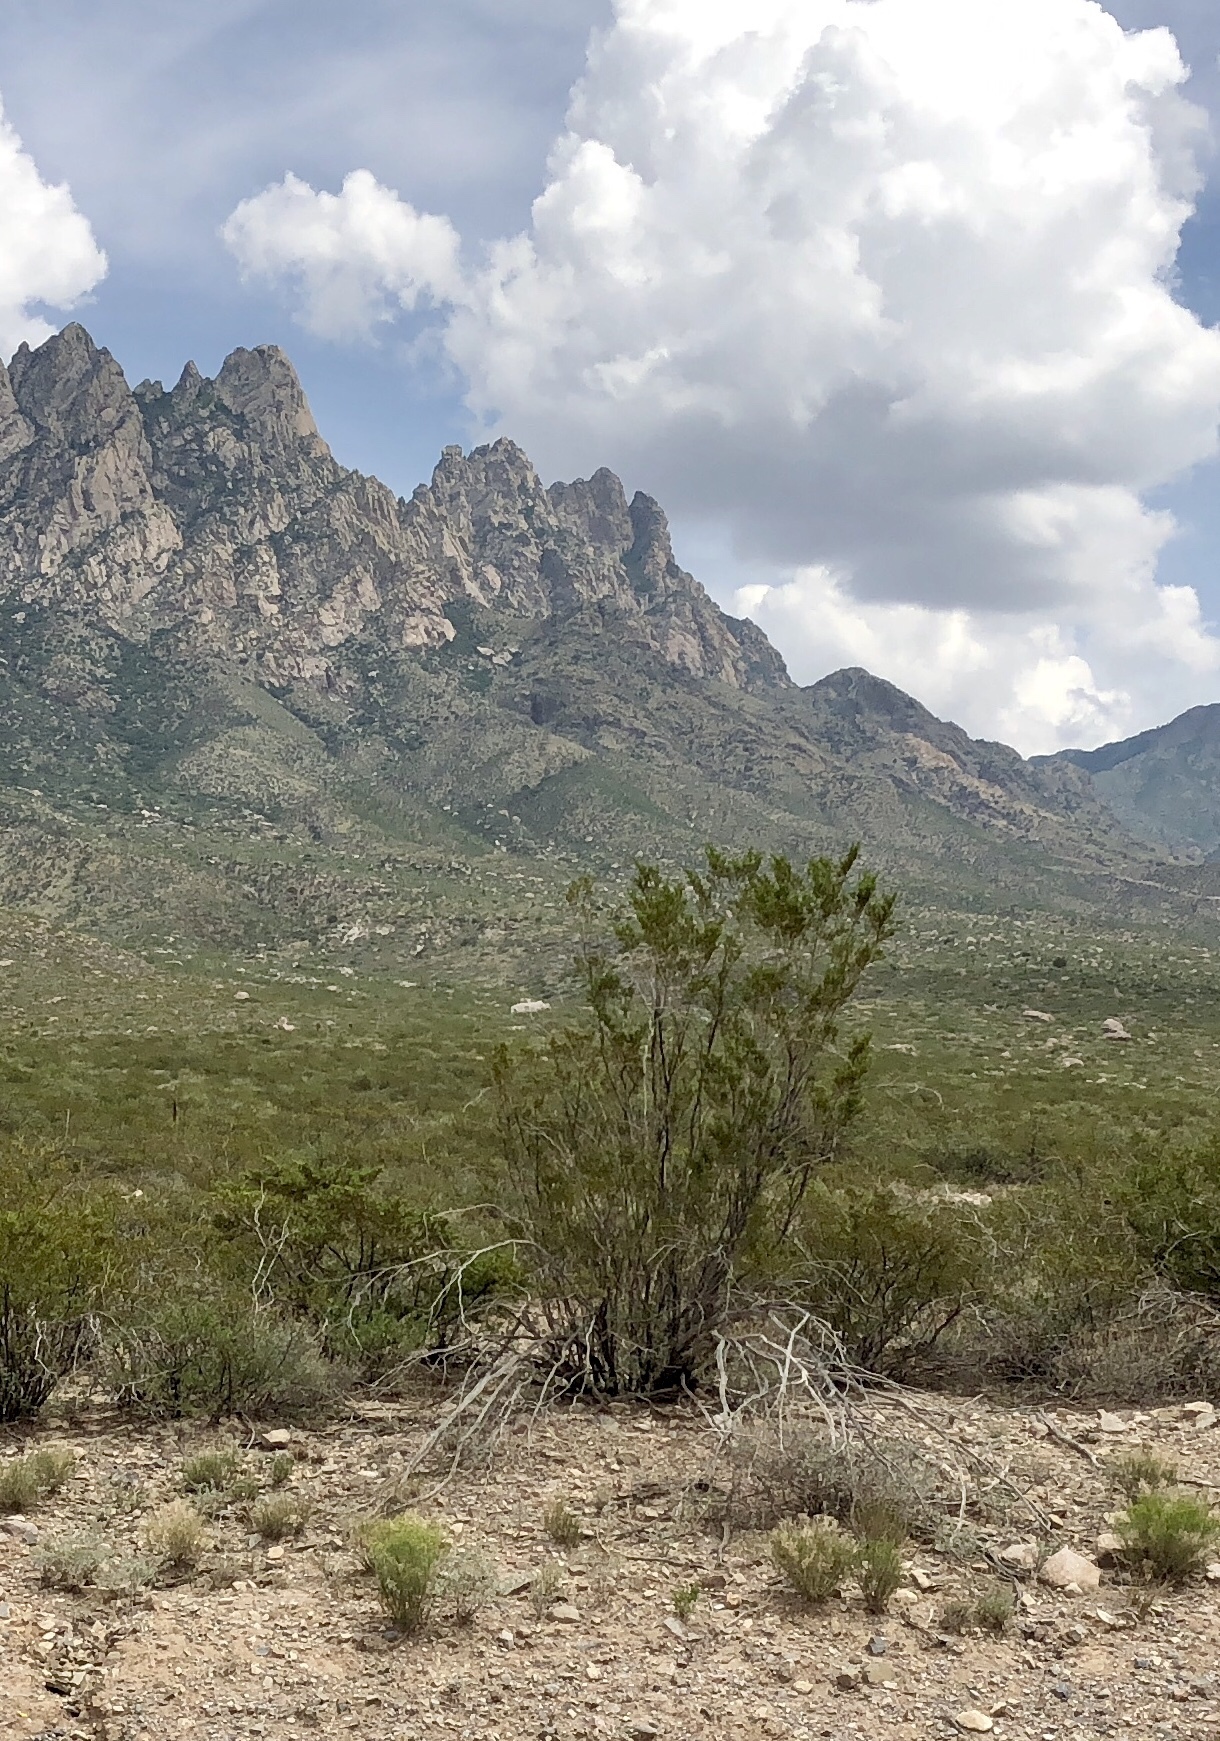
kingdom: Plantae
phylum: Tracheophyta
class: Magnoliopsida
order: Zygophyllales
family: Zygophyllaceae
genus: Larrea
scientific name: Larrea tridentata
